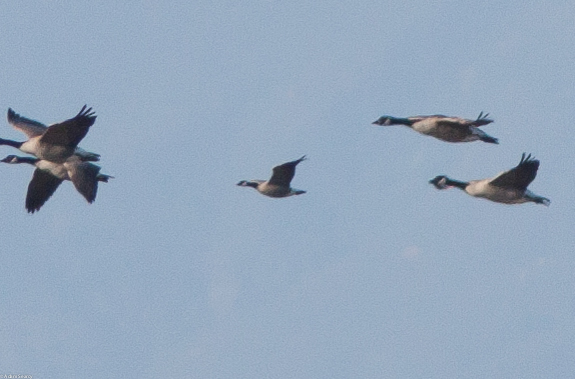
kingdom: Animalia
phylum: Chordata
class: Aves
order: Anseriformes
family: Anatidae
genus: Branta
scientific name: Branta hutchinsii
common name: Cackling goose
